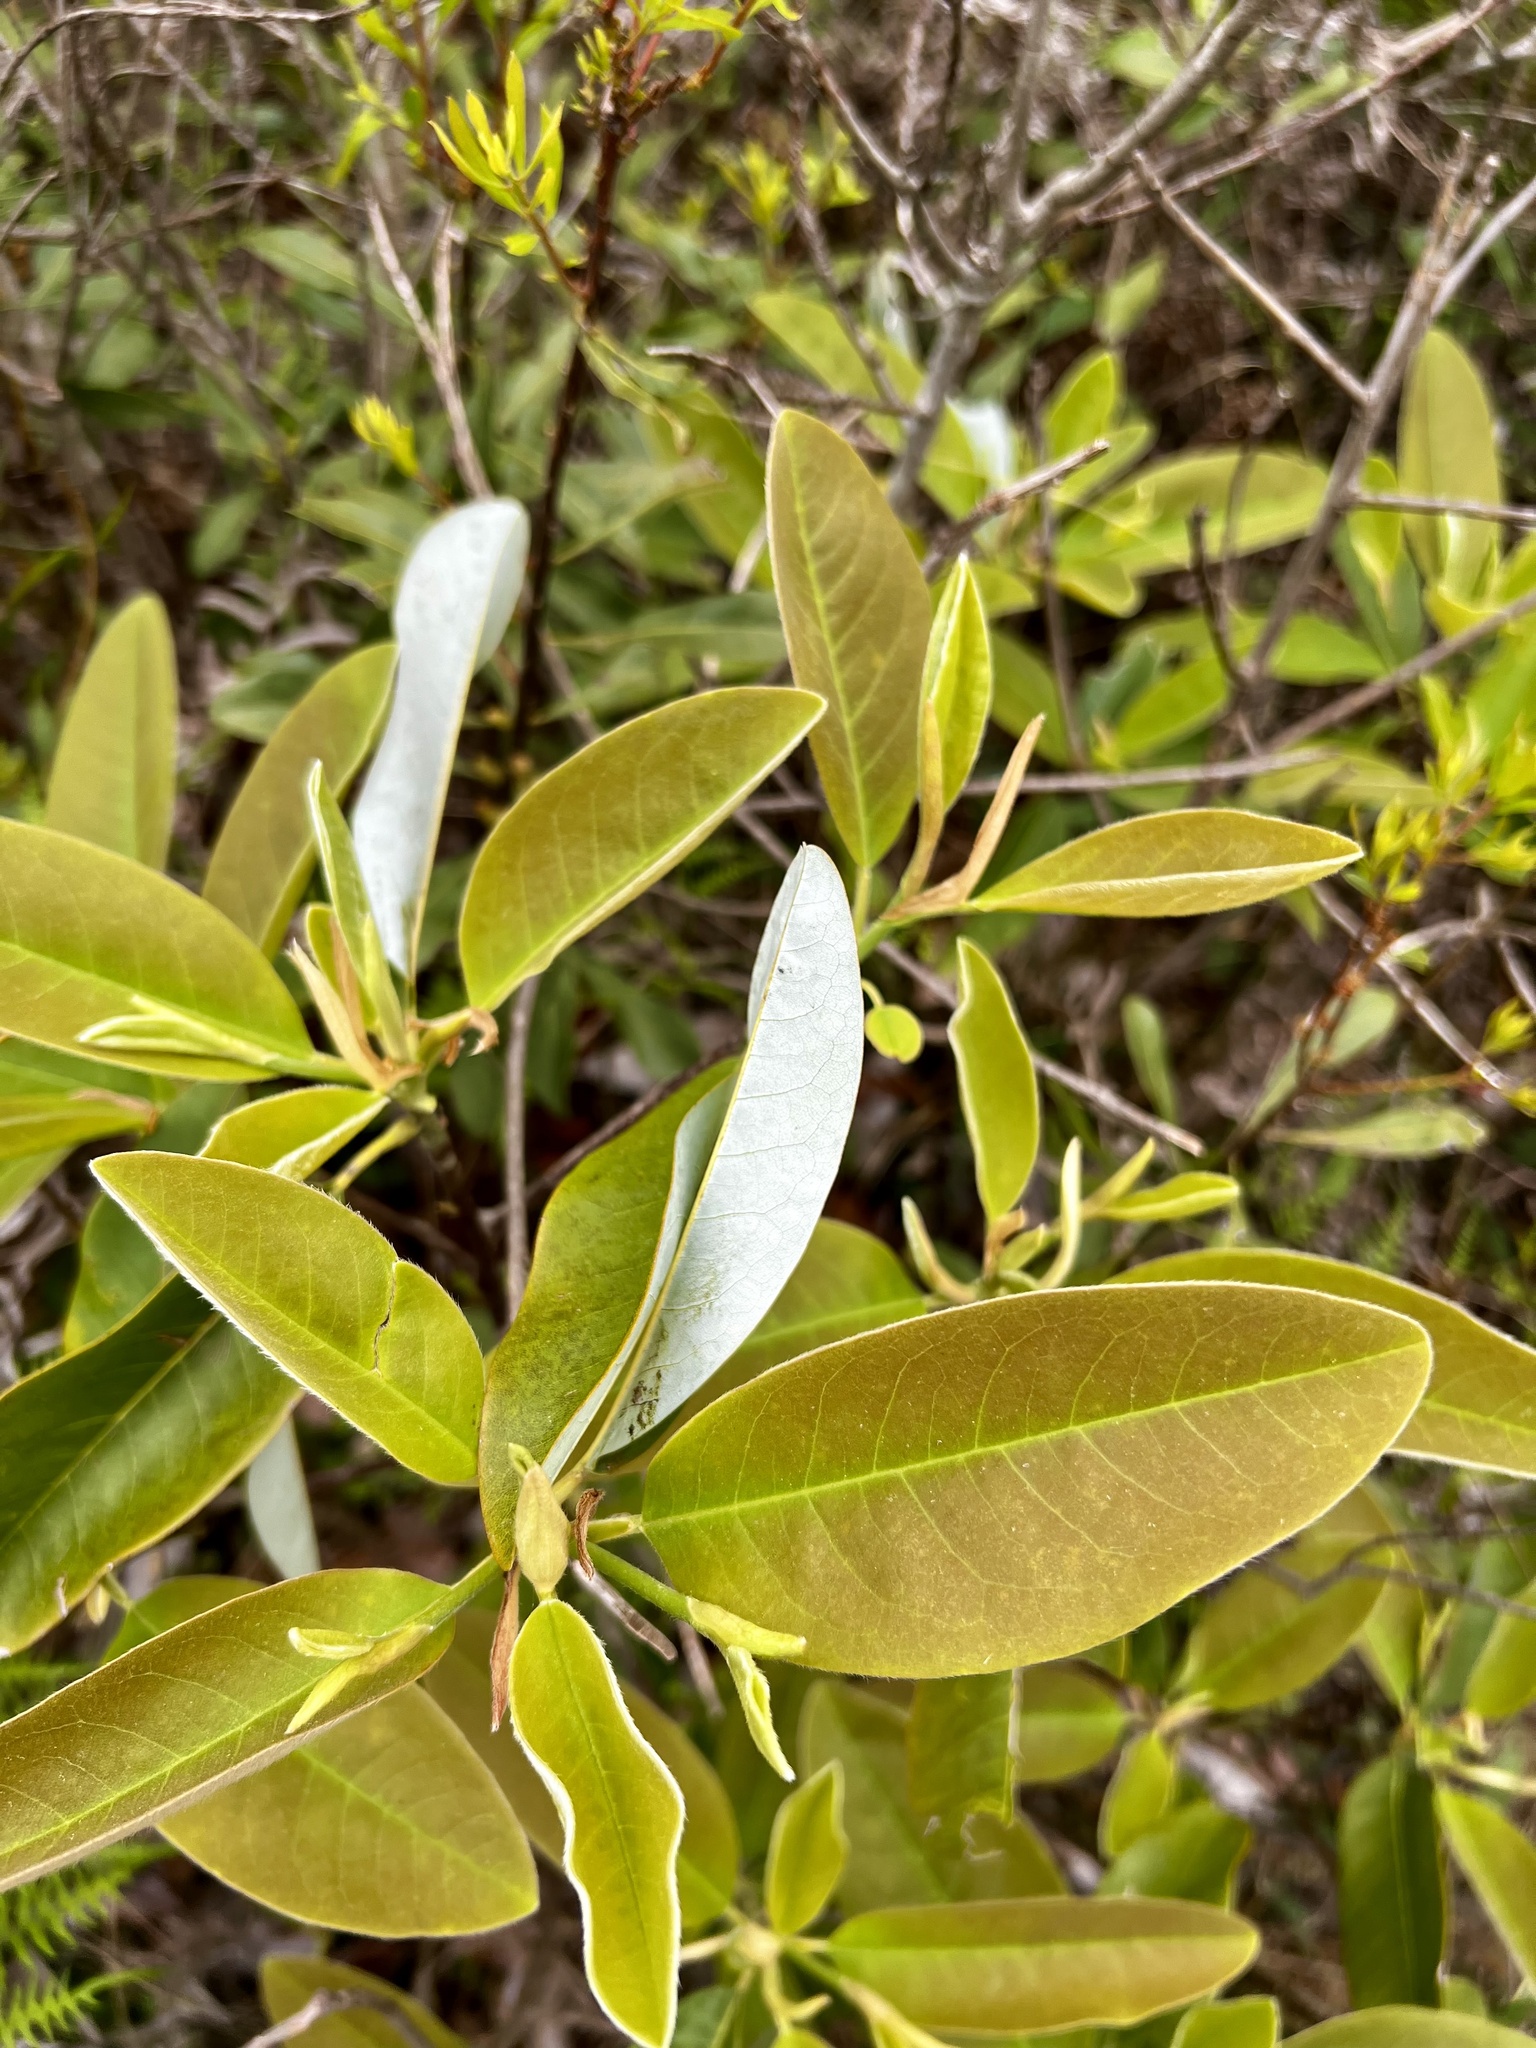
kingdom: Plantae
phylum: Tracheophyta
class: Magnoliopsida
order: Magnoliales
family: Magnoliaceae
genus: Magnolia
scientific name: Magnolia virginiana
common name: Swamp bay
